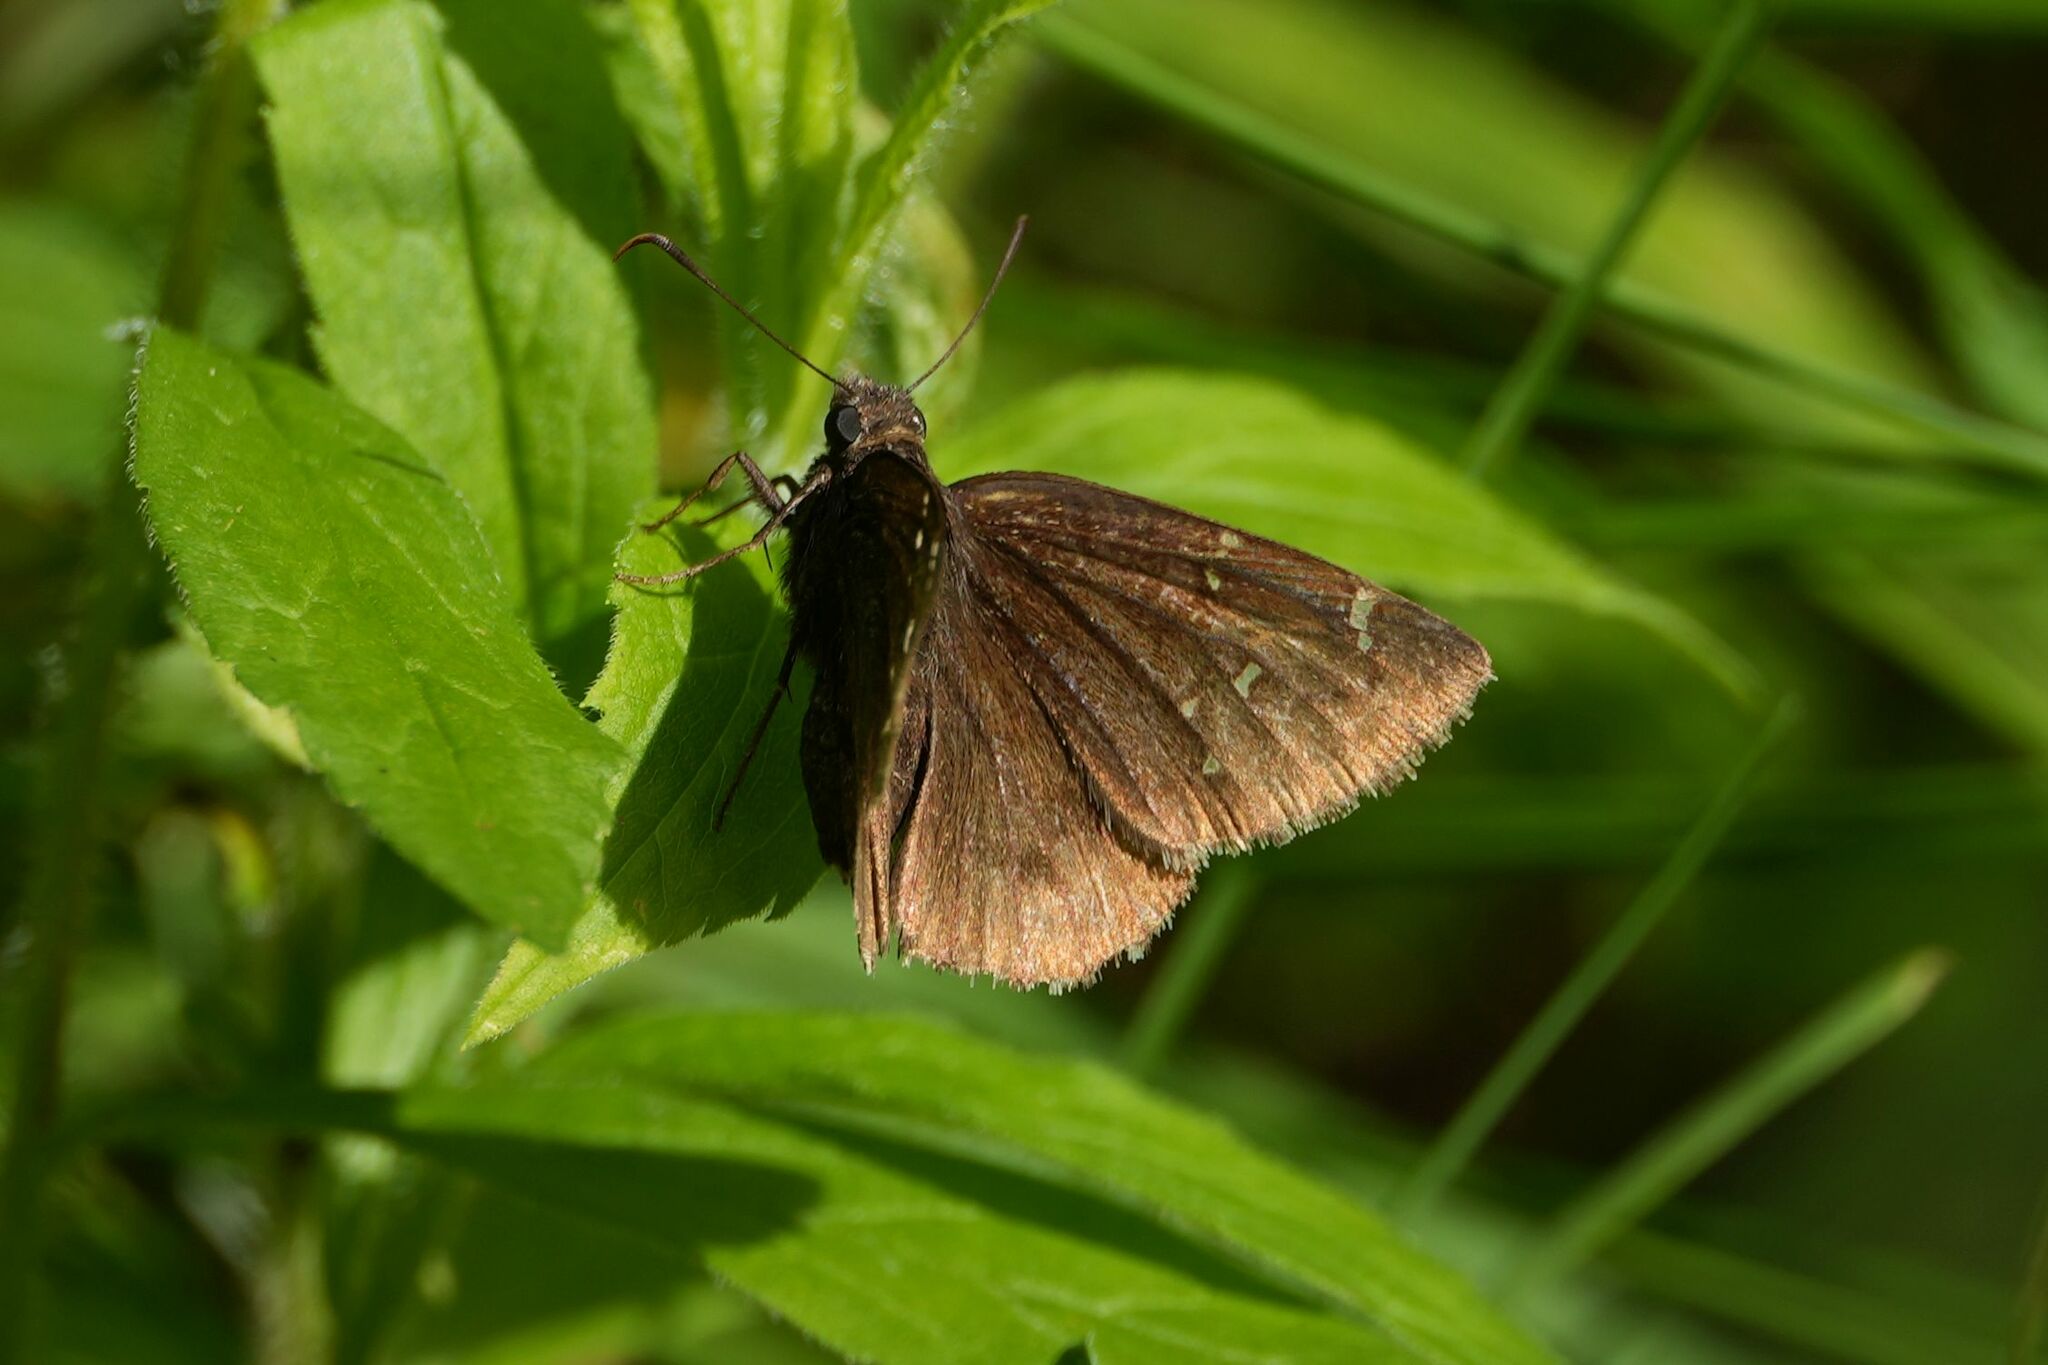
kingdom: Animalia
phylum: Arthropoda
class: Insecta
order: Lepidoptera
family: Hesperiidae
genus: Thorybes
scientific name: Thorybes pylades
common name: Northern cloudywing
